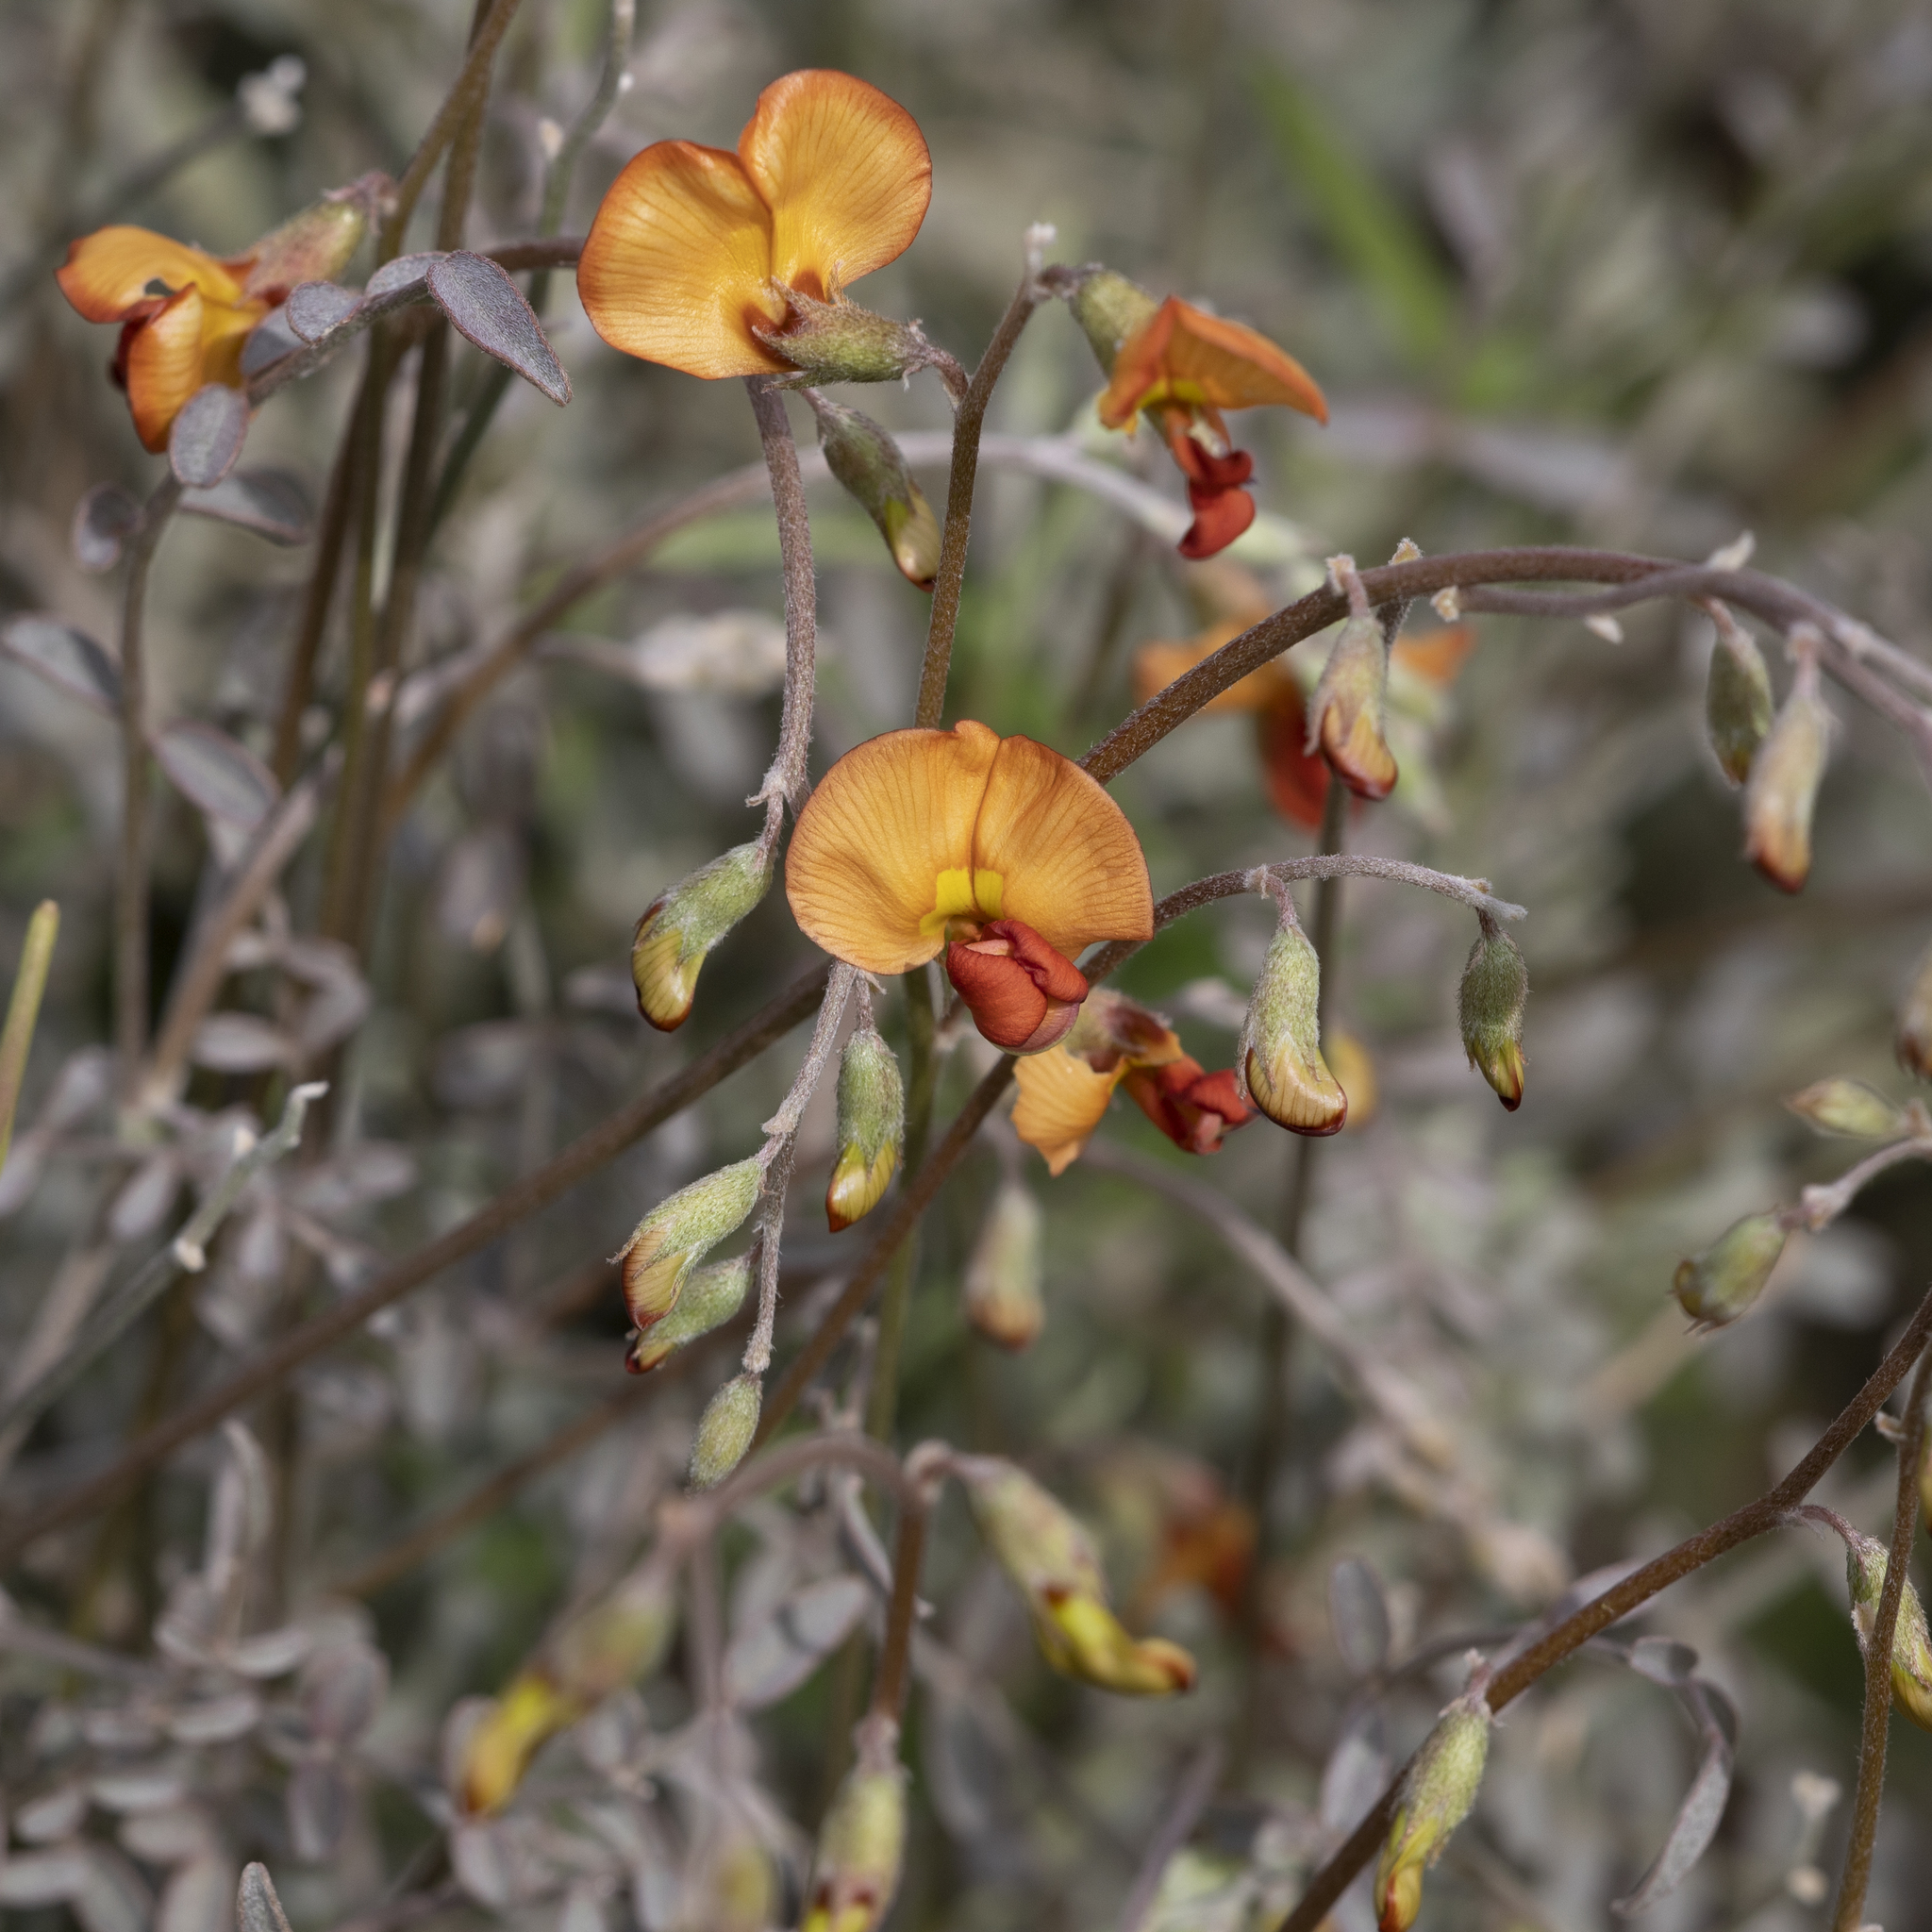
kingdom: Plantae
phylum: Tracheophyta
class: Magnoliopsida
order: Fabales
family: Fabaceae
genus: Swainsona
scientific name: Swainsona stipularis
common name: Orange darling-pea
